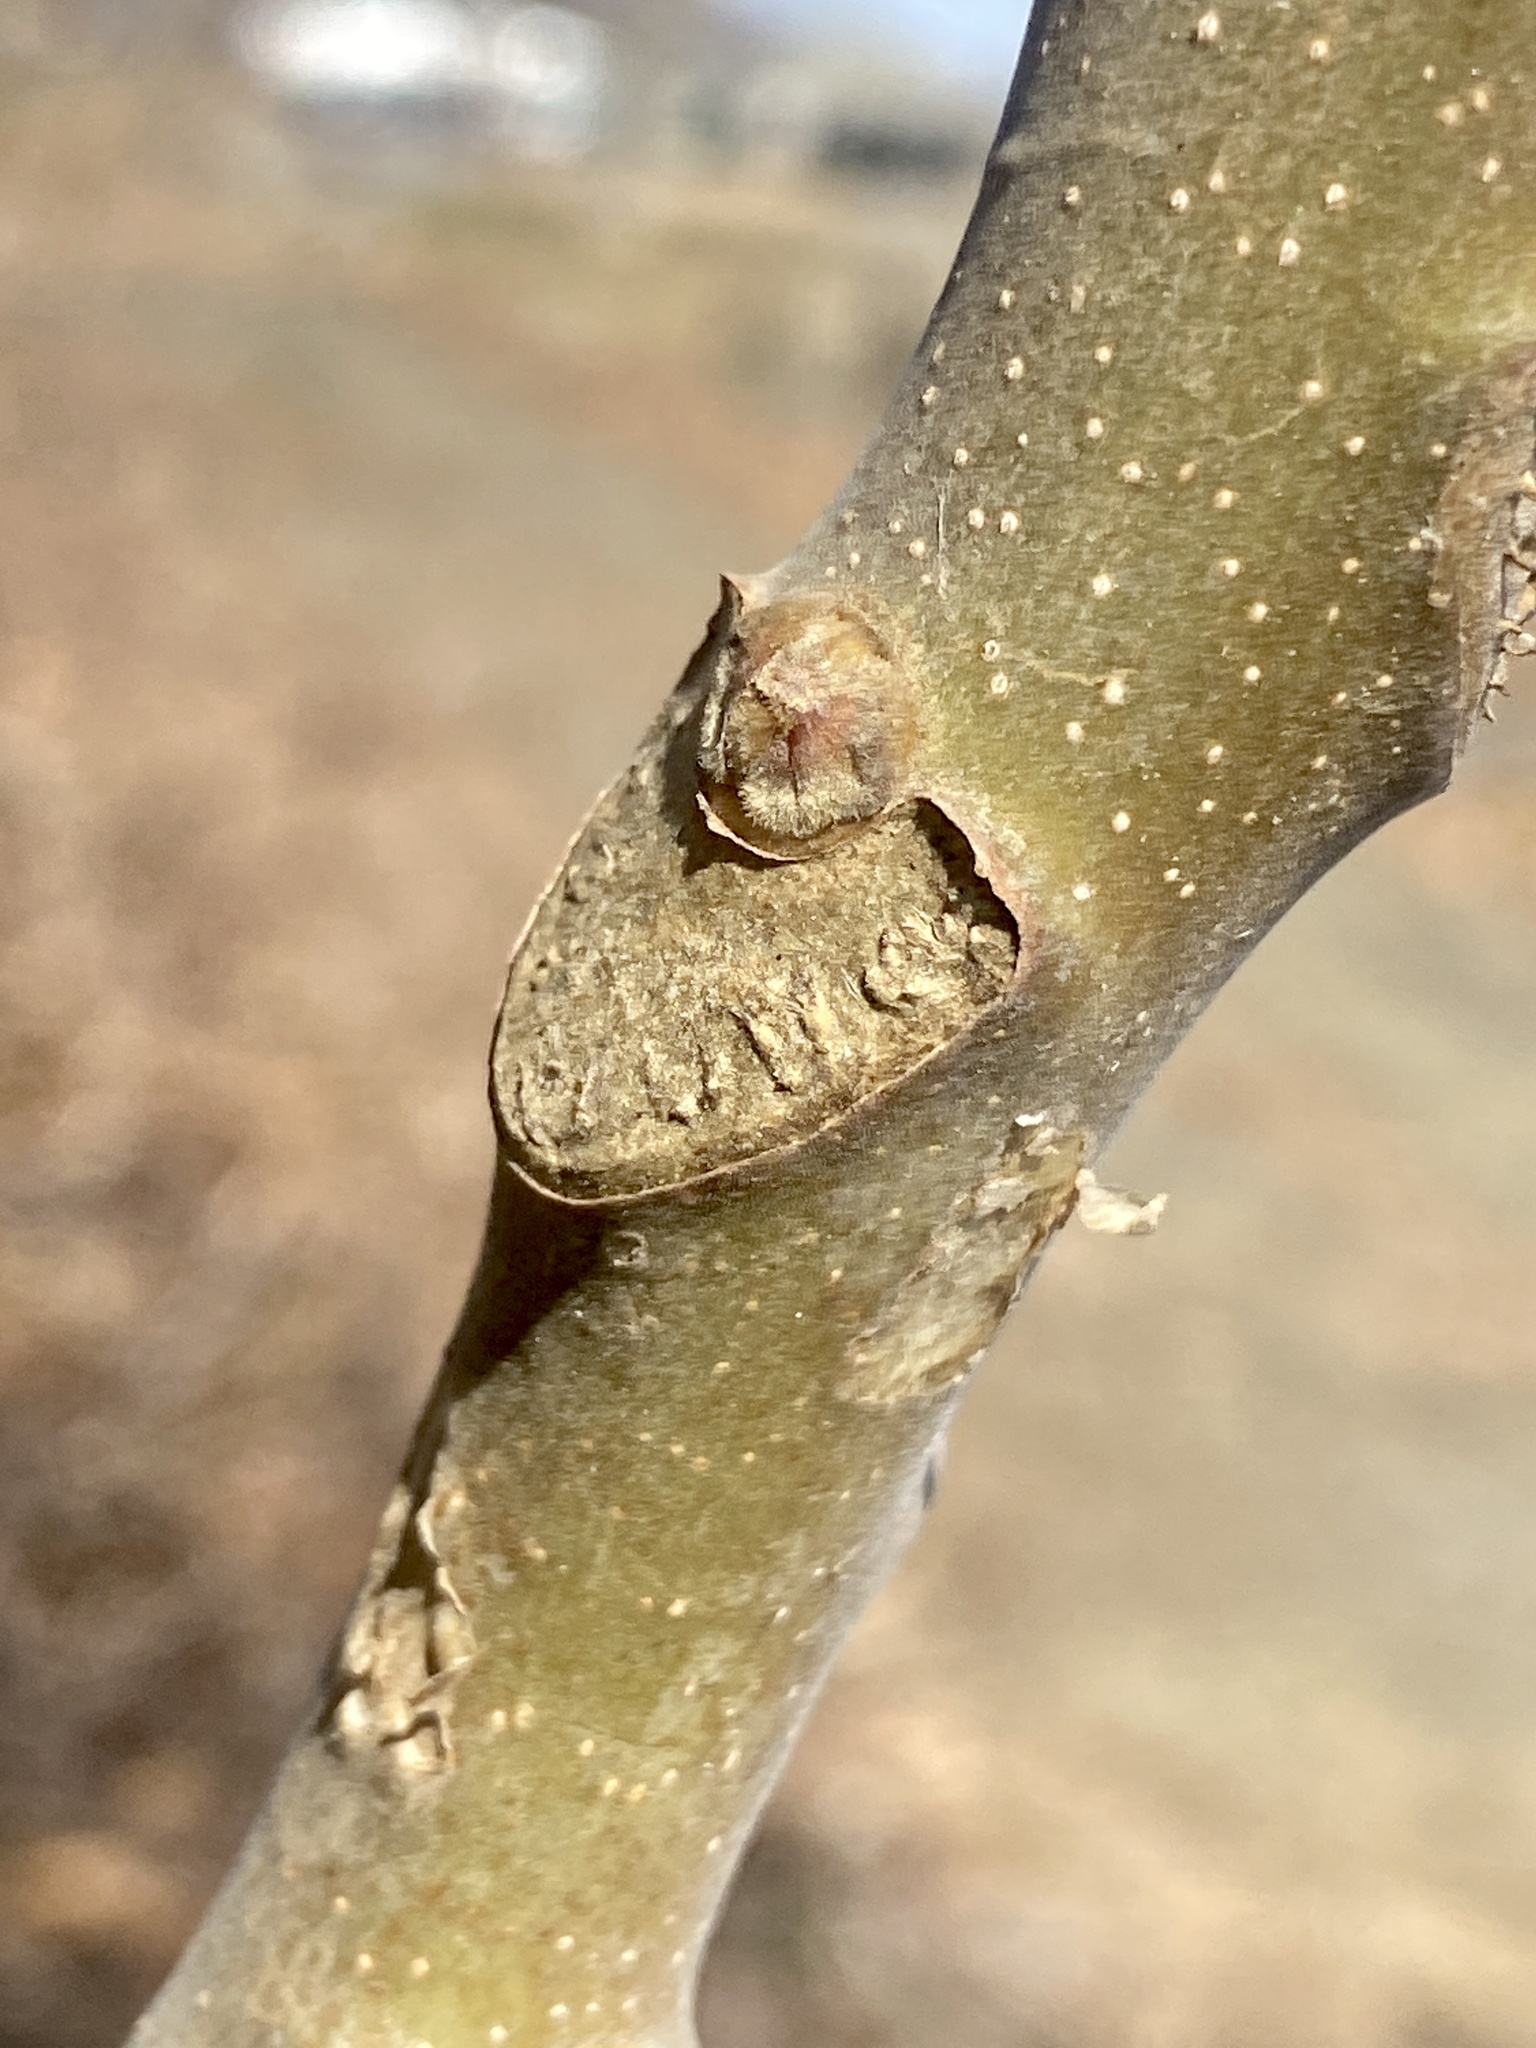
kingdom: Plantae
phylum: Tracheophyta
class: Magnoliopsida
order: Sapindales
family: Simaroubaceae
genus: Ailanthus
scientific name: Ailanthus altissima
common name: Tree-of-heaven
